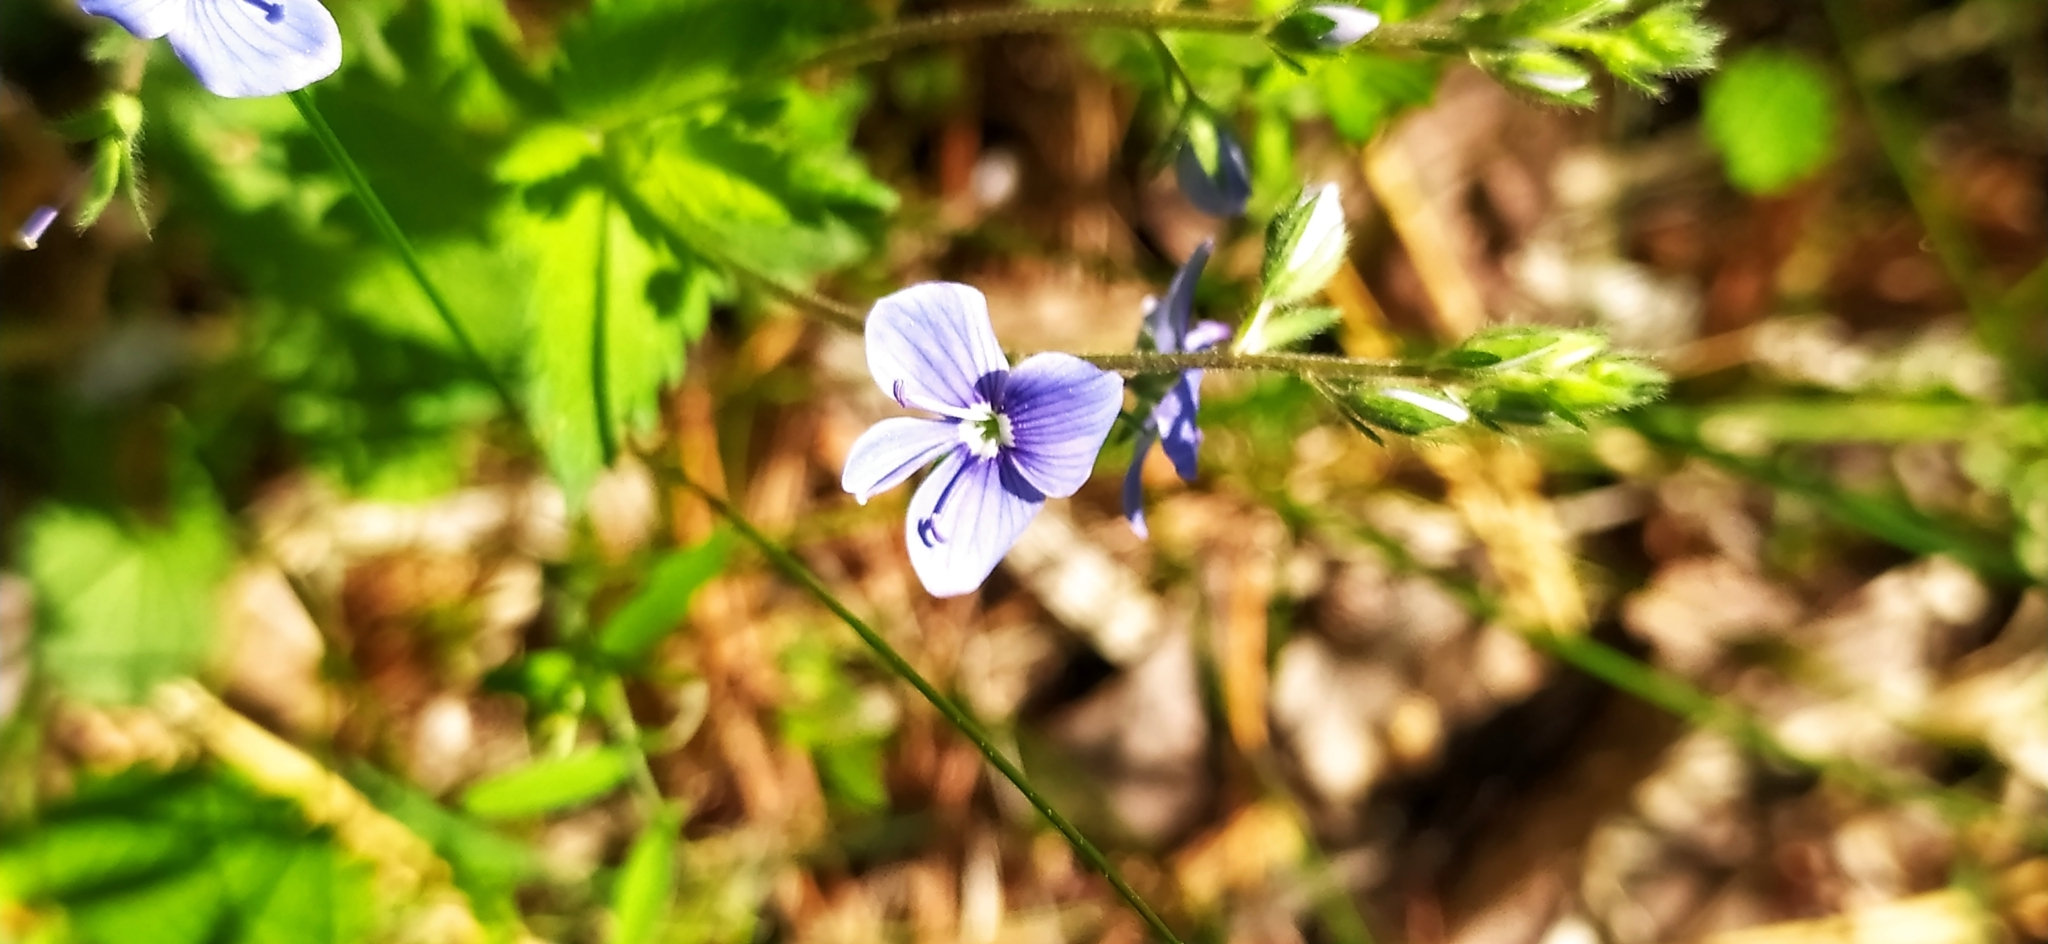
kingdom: Plantae
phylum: Tracheophyta
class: Magnoliopsida
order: Lamiales
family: Plantaginaceae
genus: Veronica
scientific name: Veronica chamaedrys
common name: Germander speedwell
